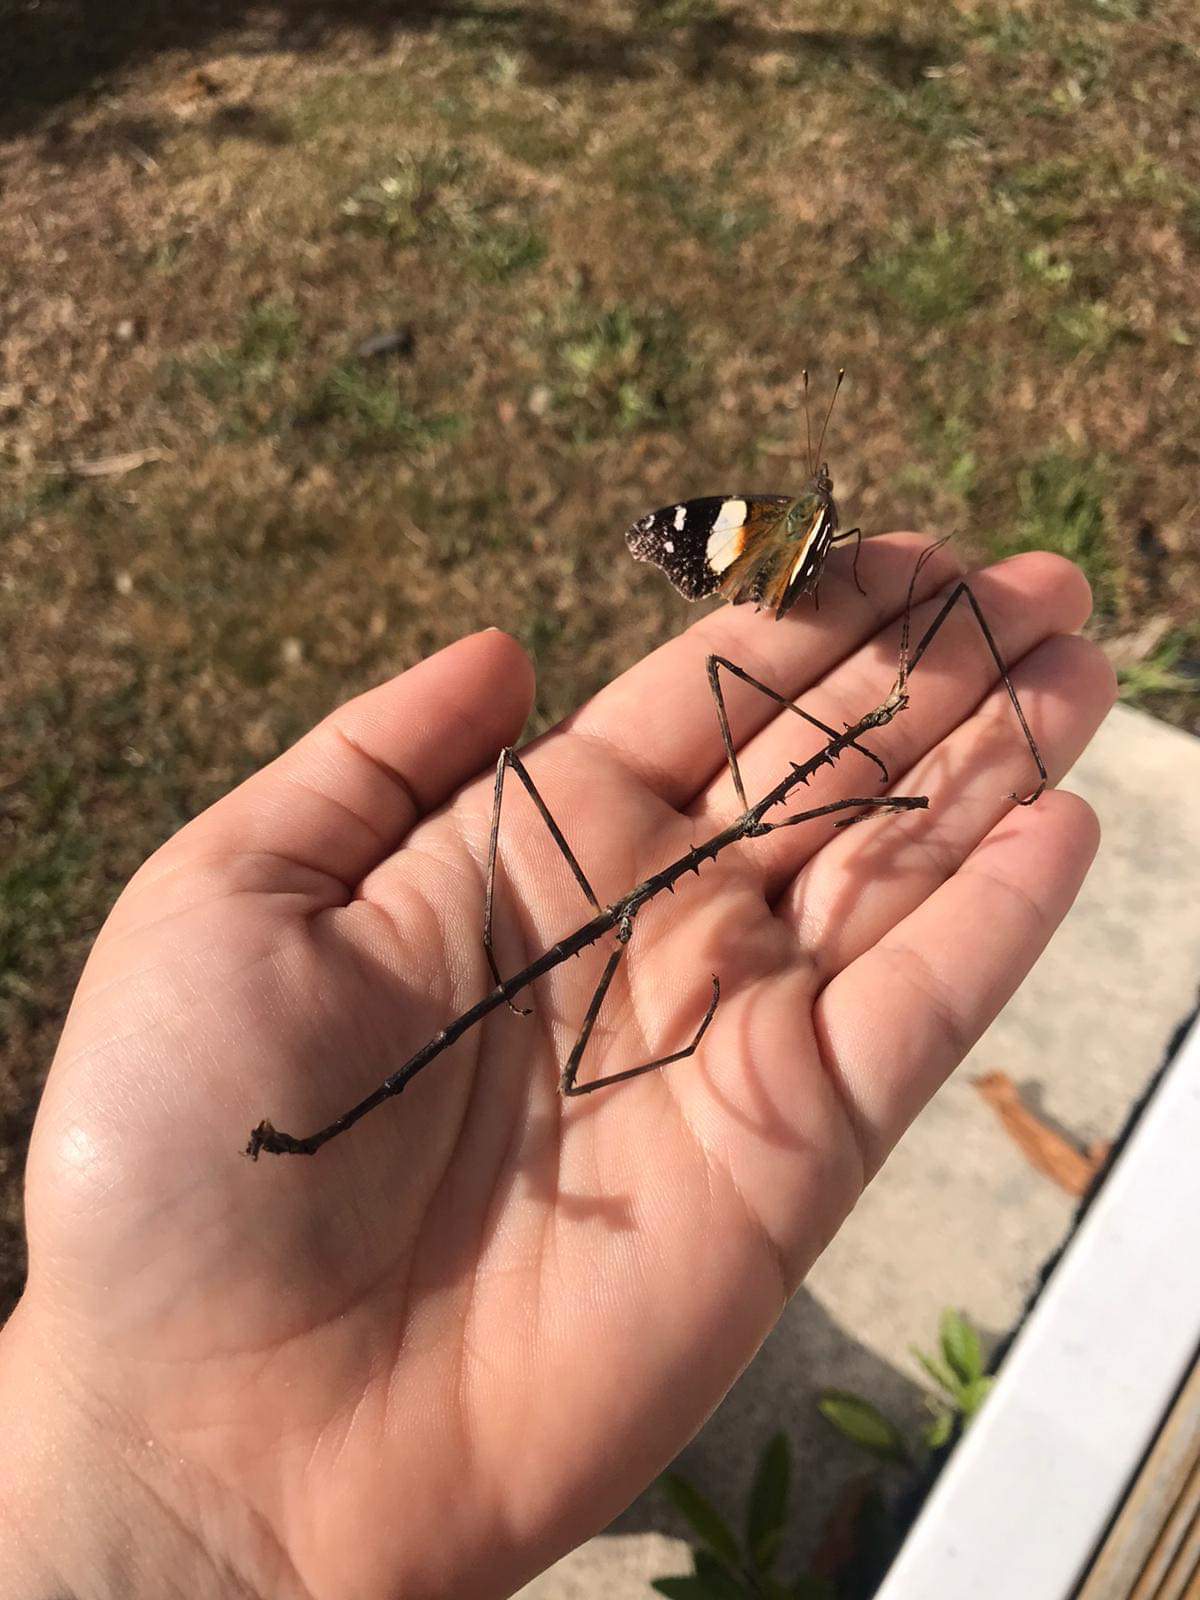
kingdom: Animalia
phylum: Arthropoda
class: Insecta
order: Phasmida
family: Phasmatidae
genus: Argosarchus
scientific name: Argosarchus horridus
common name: Bristly stick insect
